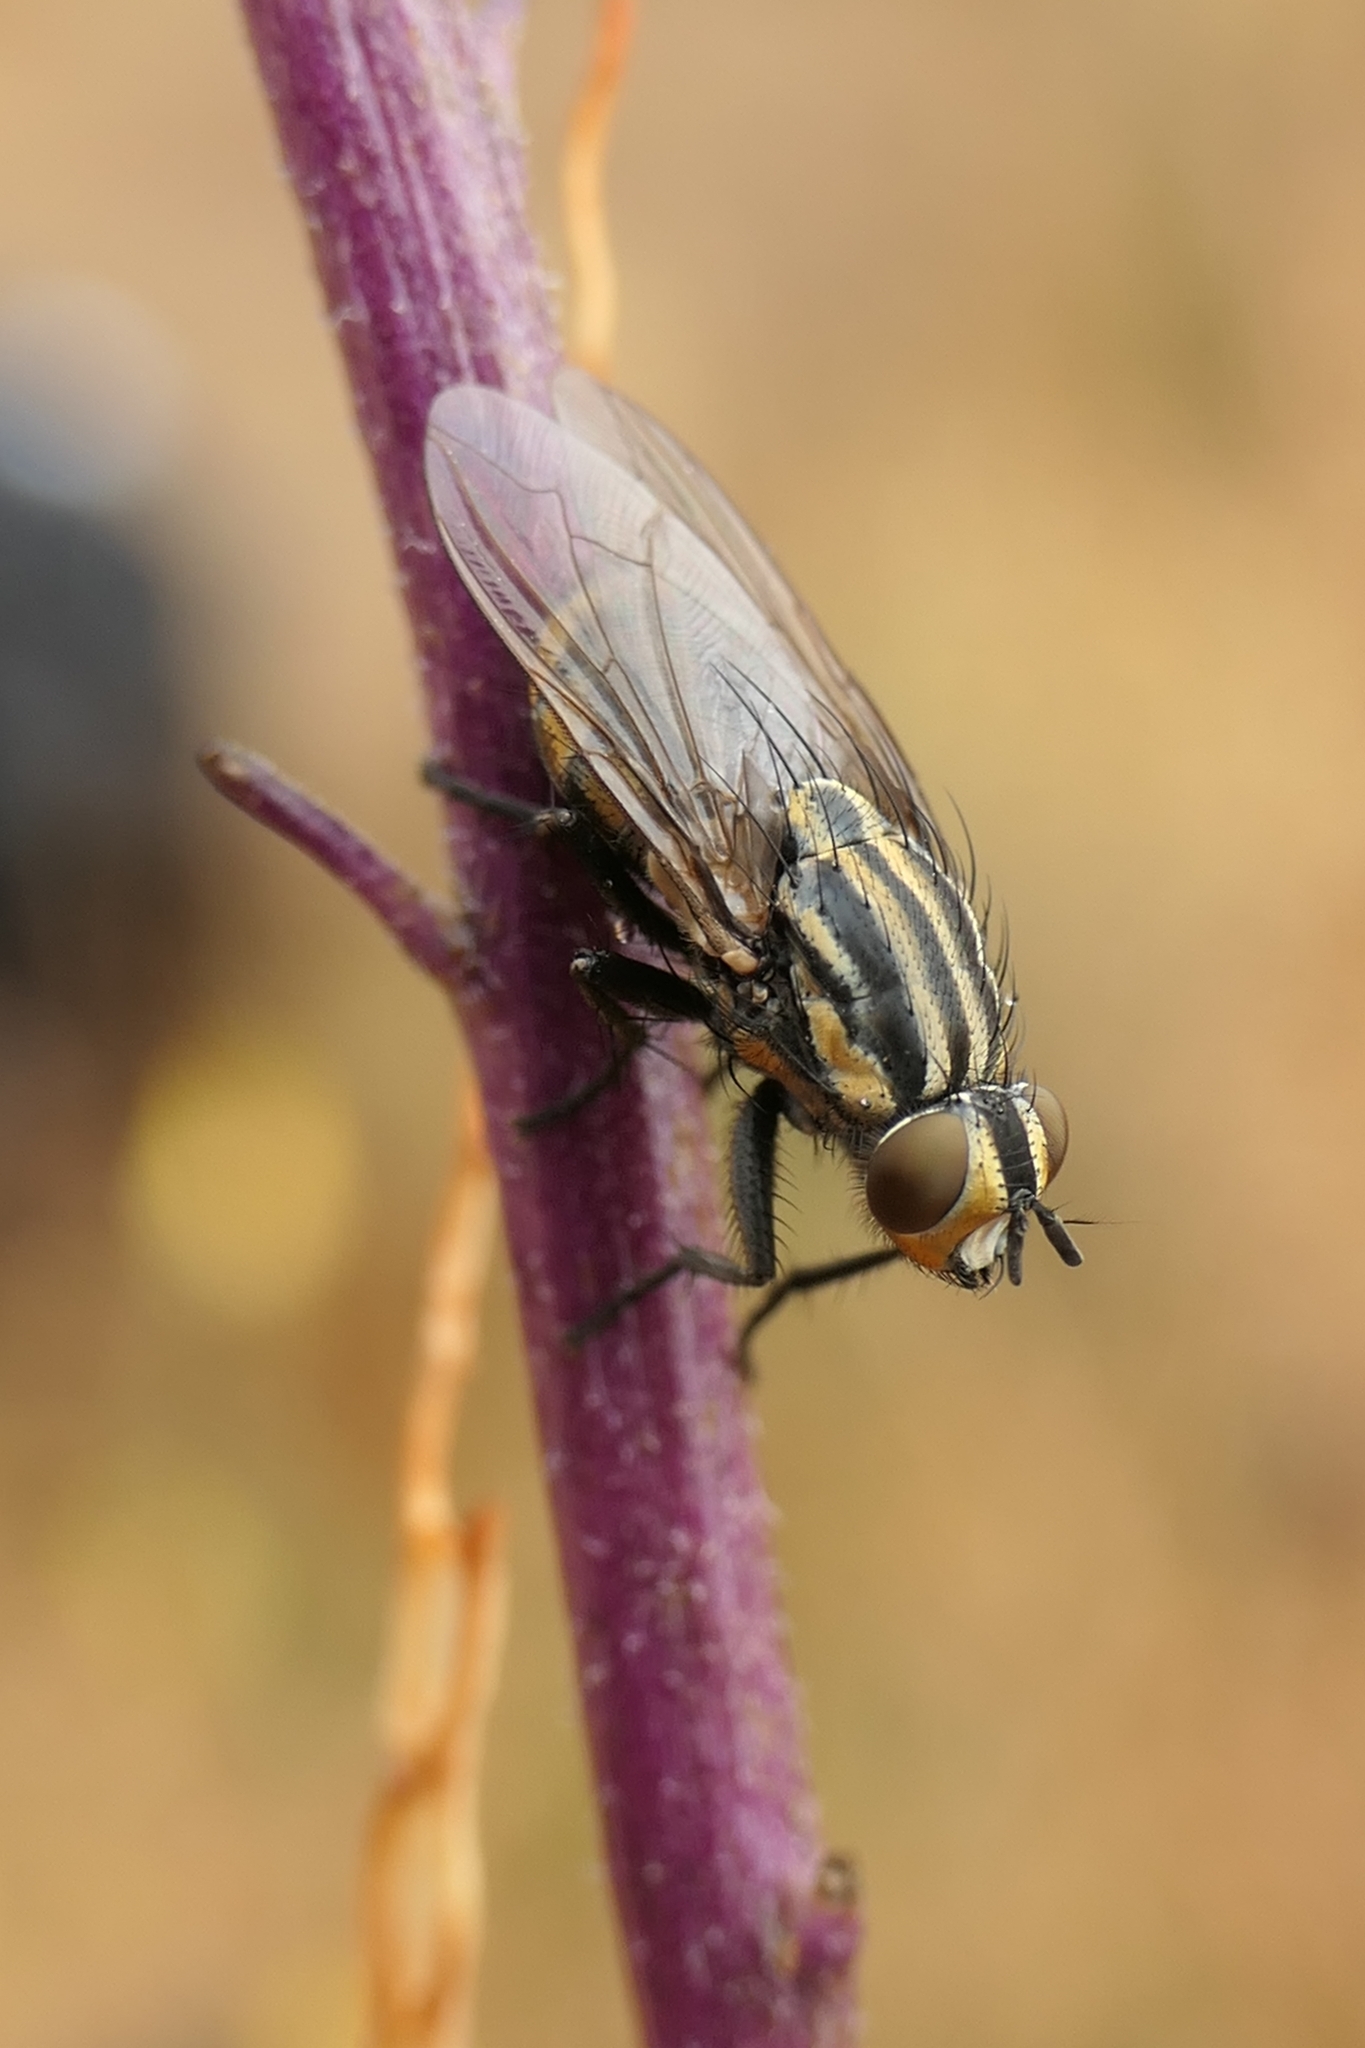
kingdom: Animalia
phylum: Arthropoda
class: Insecta
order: Diptera
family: Sarcophagidae
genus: Oxysarcodexia
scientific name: Oxysarcodexia varia
